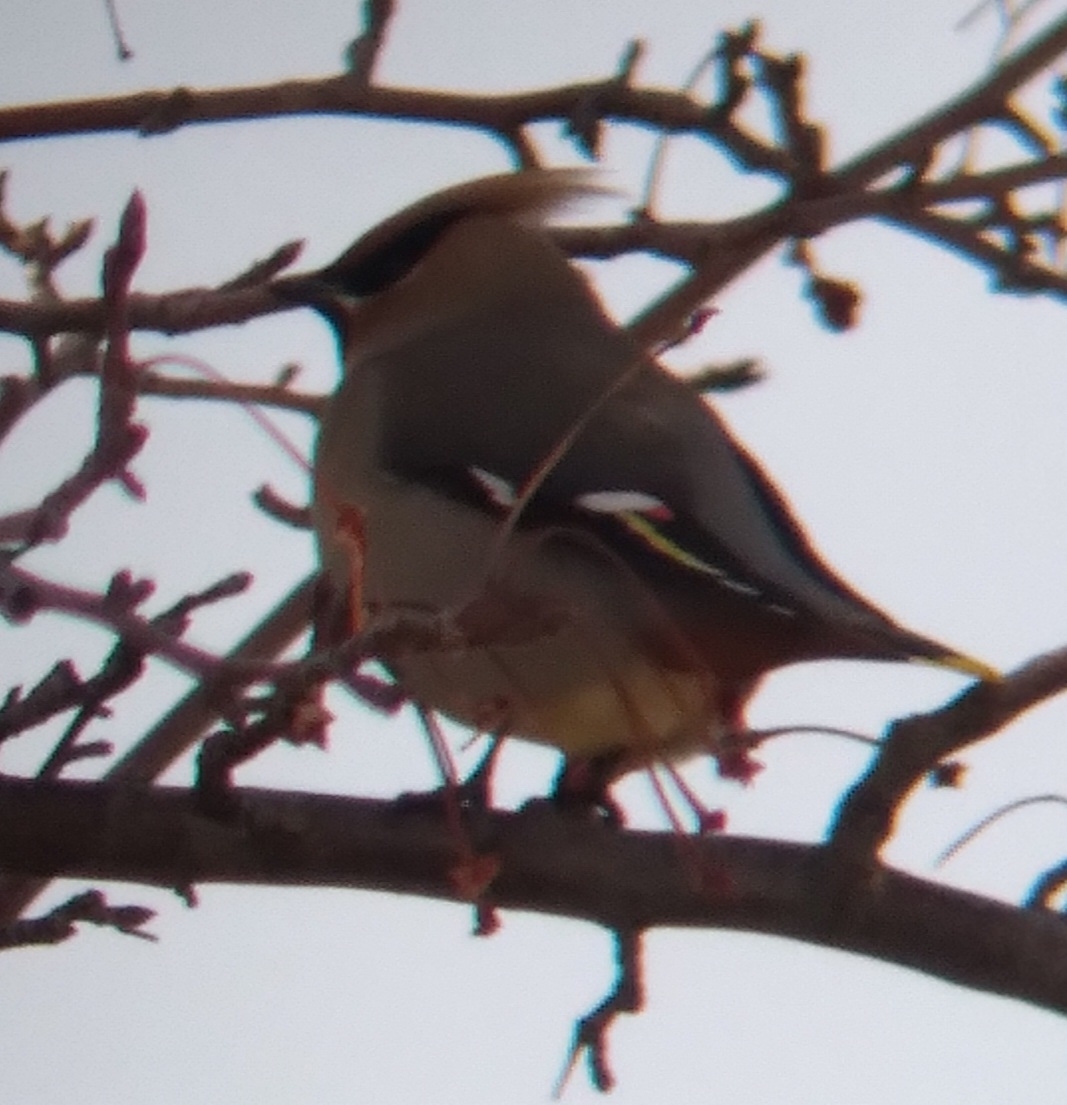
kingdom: Animalia
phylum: Chordata
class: Aves
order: Passeriformes
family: Bombycillidae
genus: Bombycilla
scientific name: Bombycilla garrulus
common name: Bohemian waxwing
